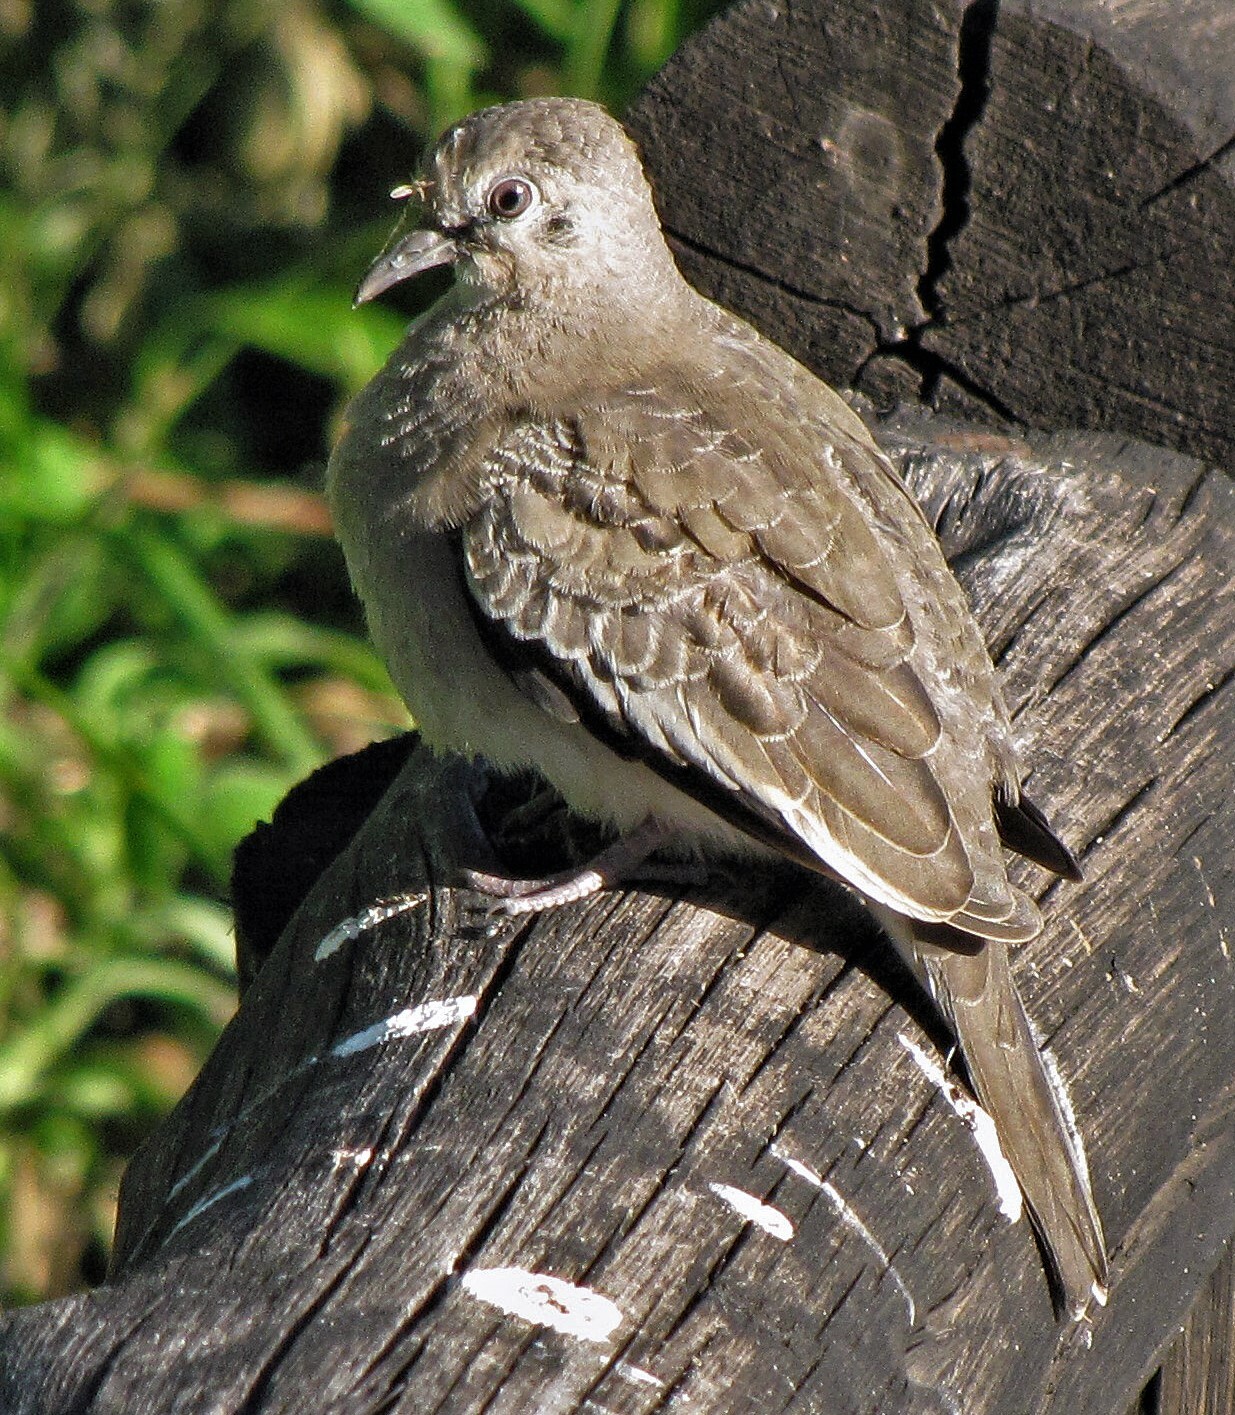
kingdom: Animalia
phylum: Chordata
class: Aves
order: Columbiformes
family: Columbidae
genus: Columbina
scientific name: Columbina picui
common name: Picui ground dove
